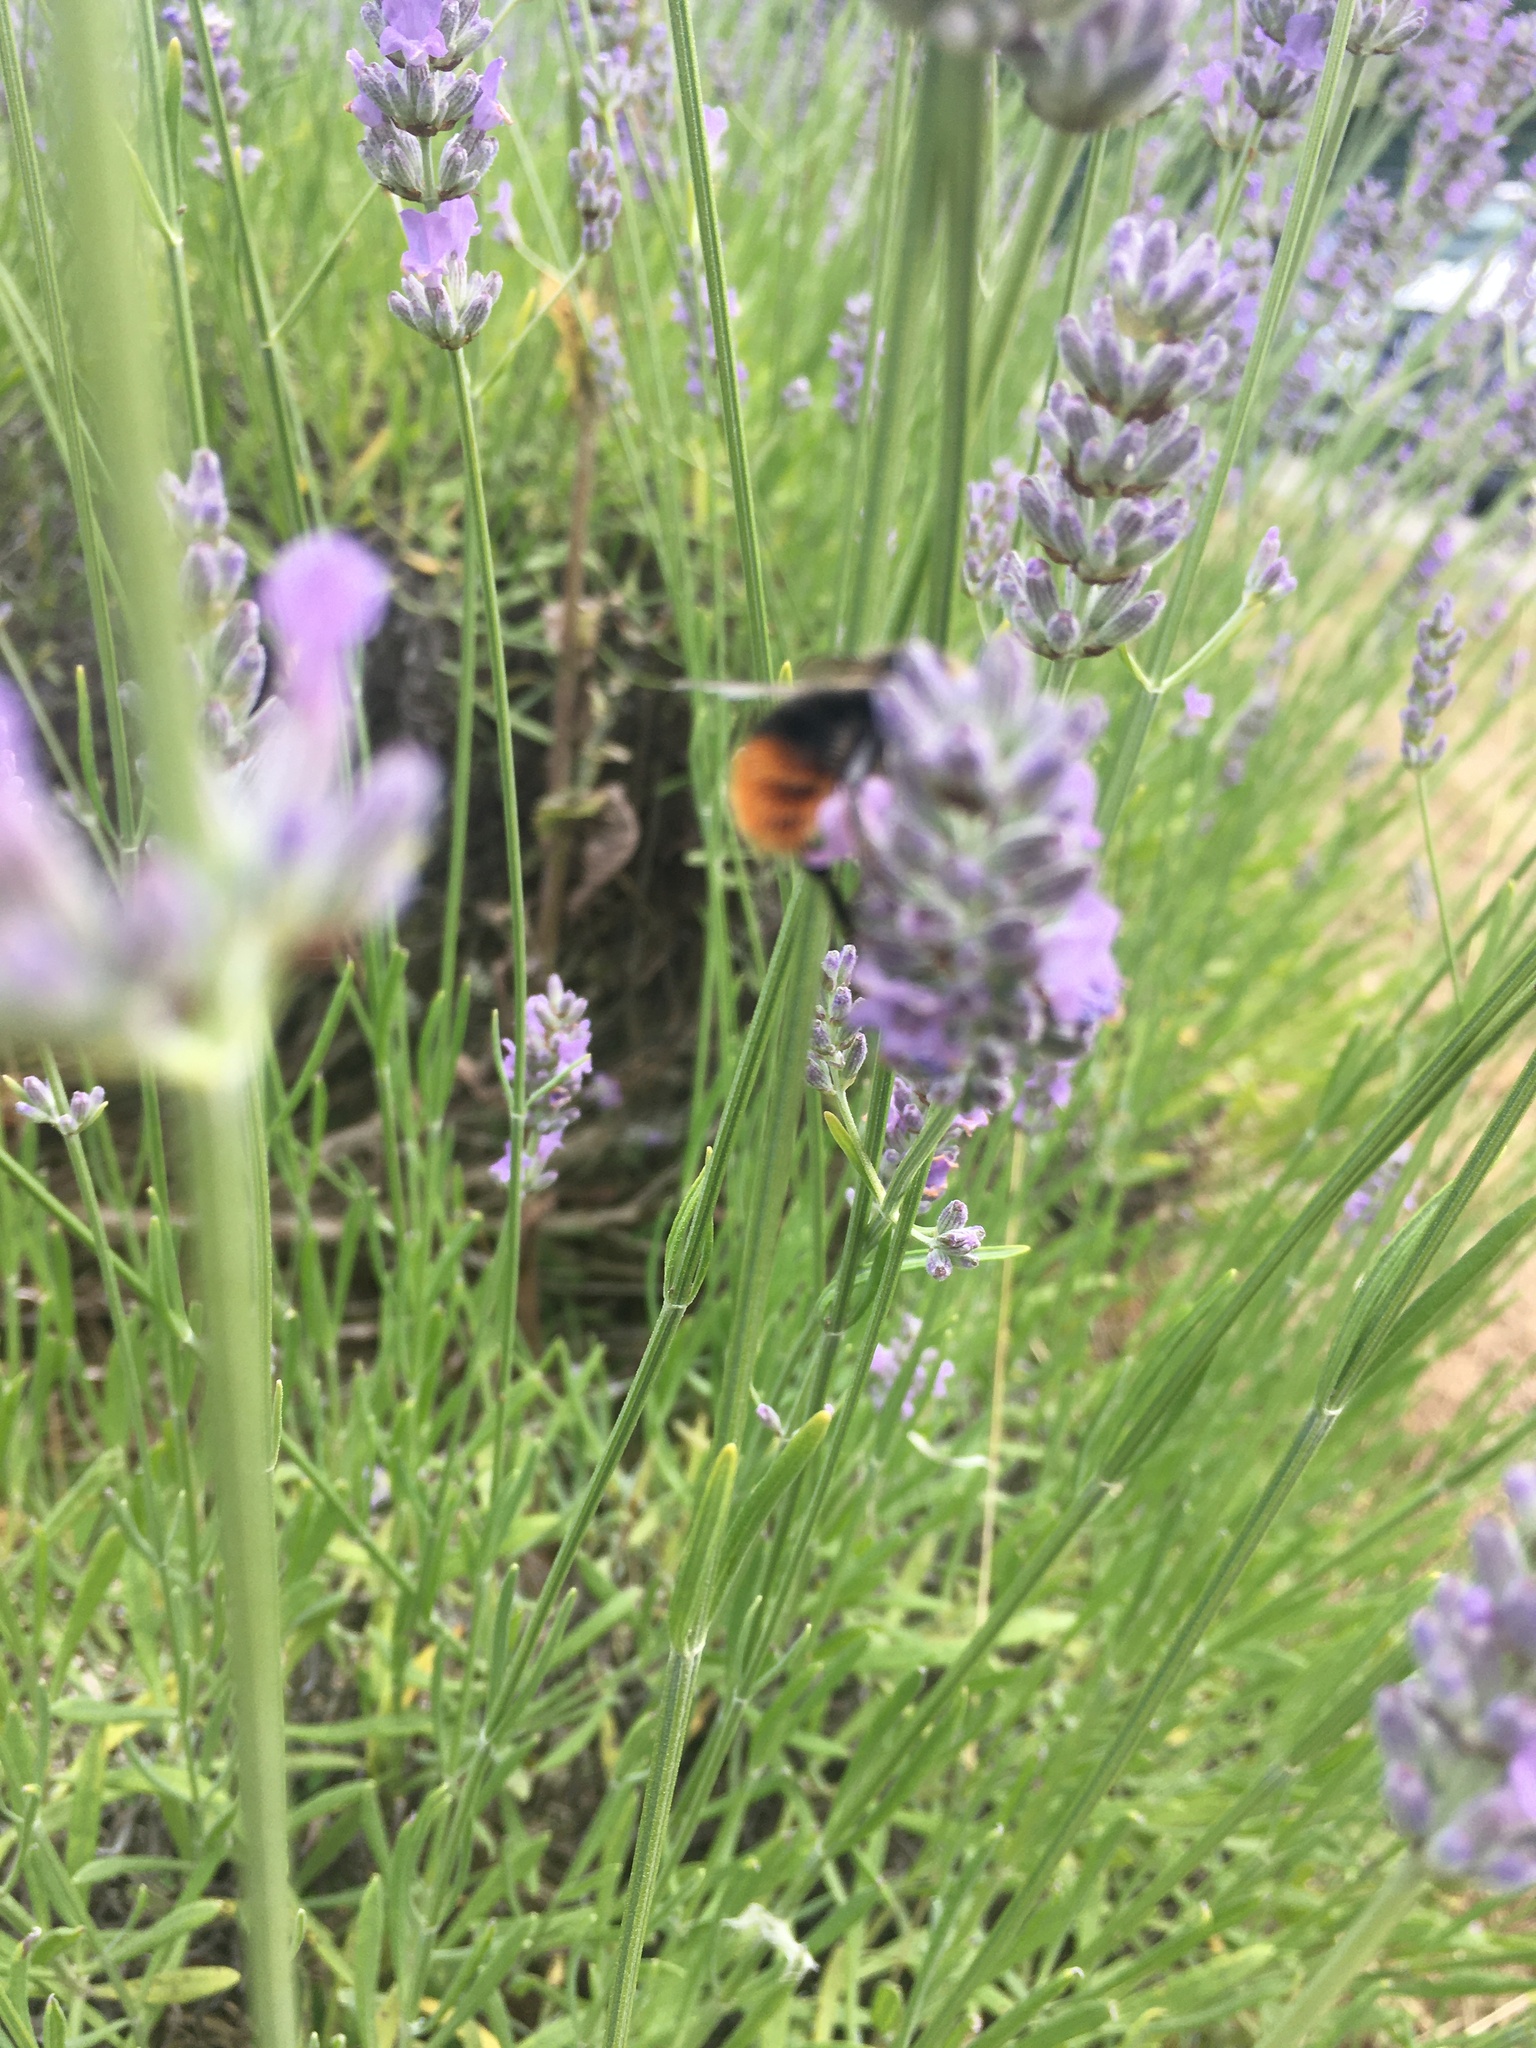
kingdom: Animalia
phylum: Arthropoda
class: Insecta
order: Hymenoptera
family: Apidae
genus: Bombus
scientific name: Bombus lapidarius
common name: Large red-tailed humble-bee
